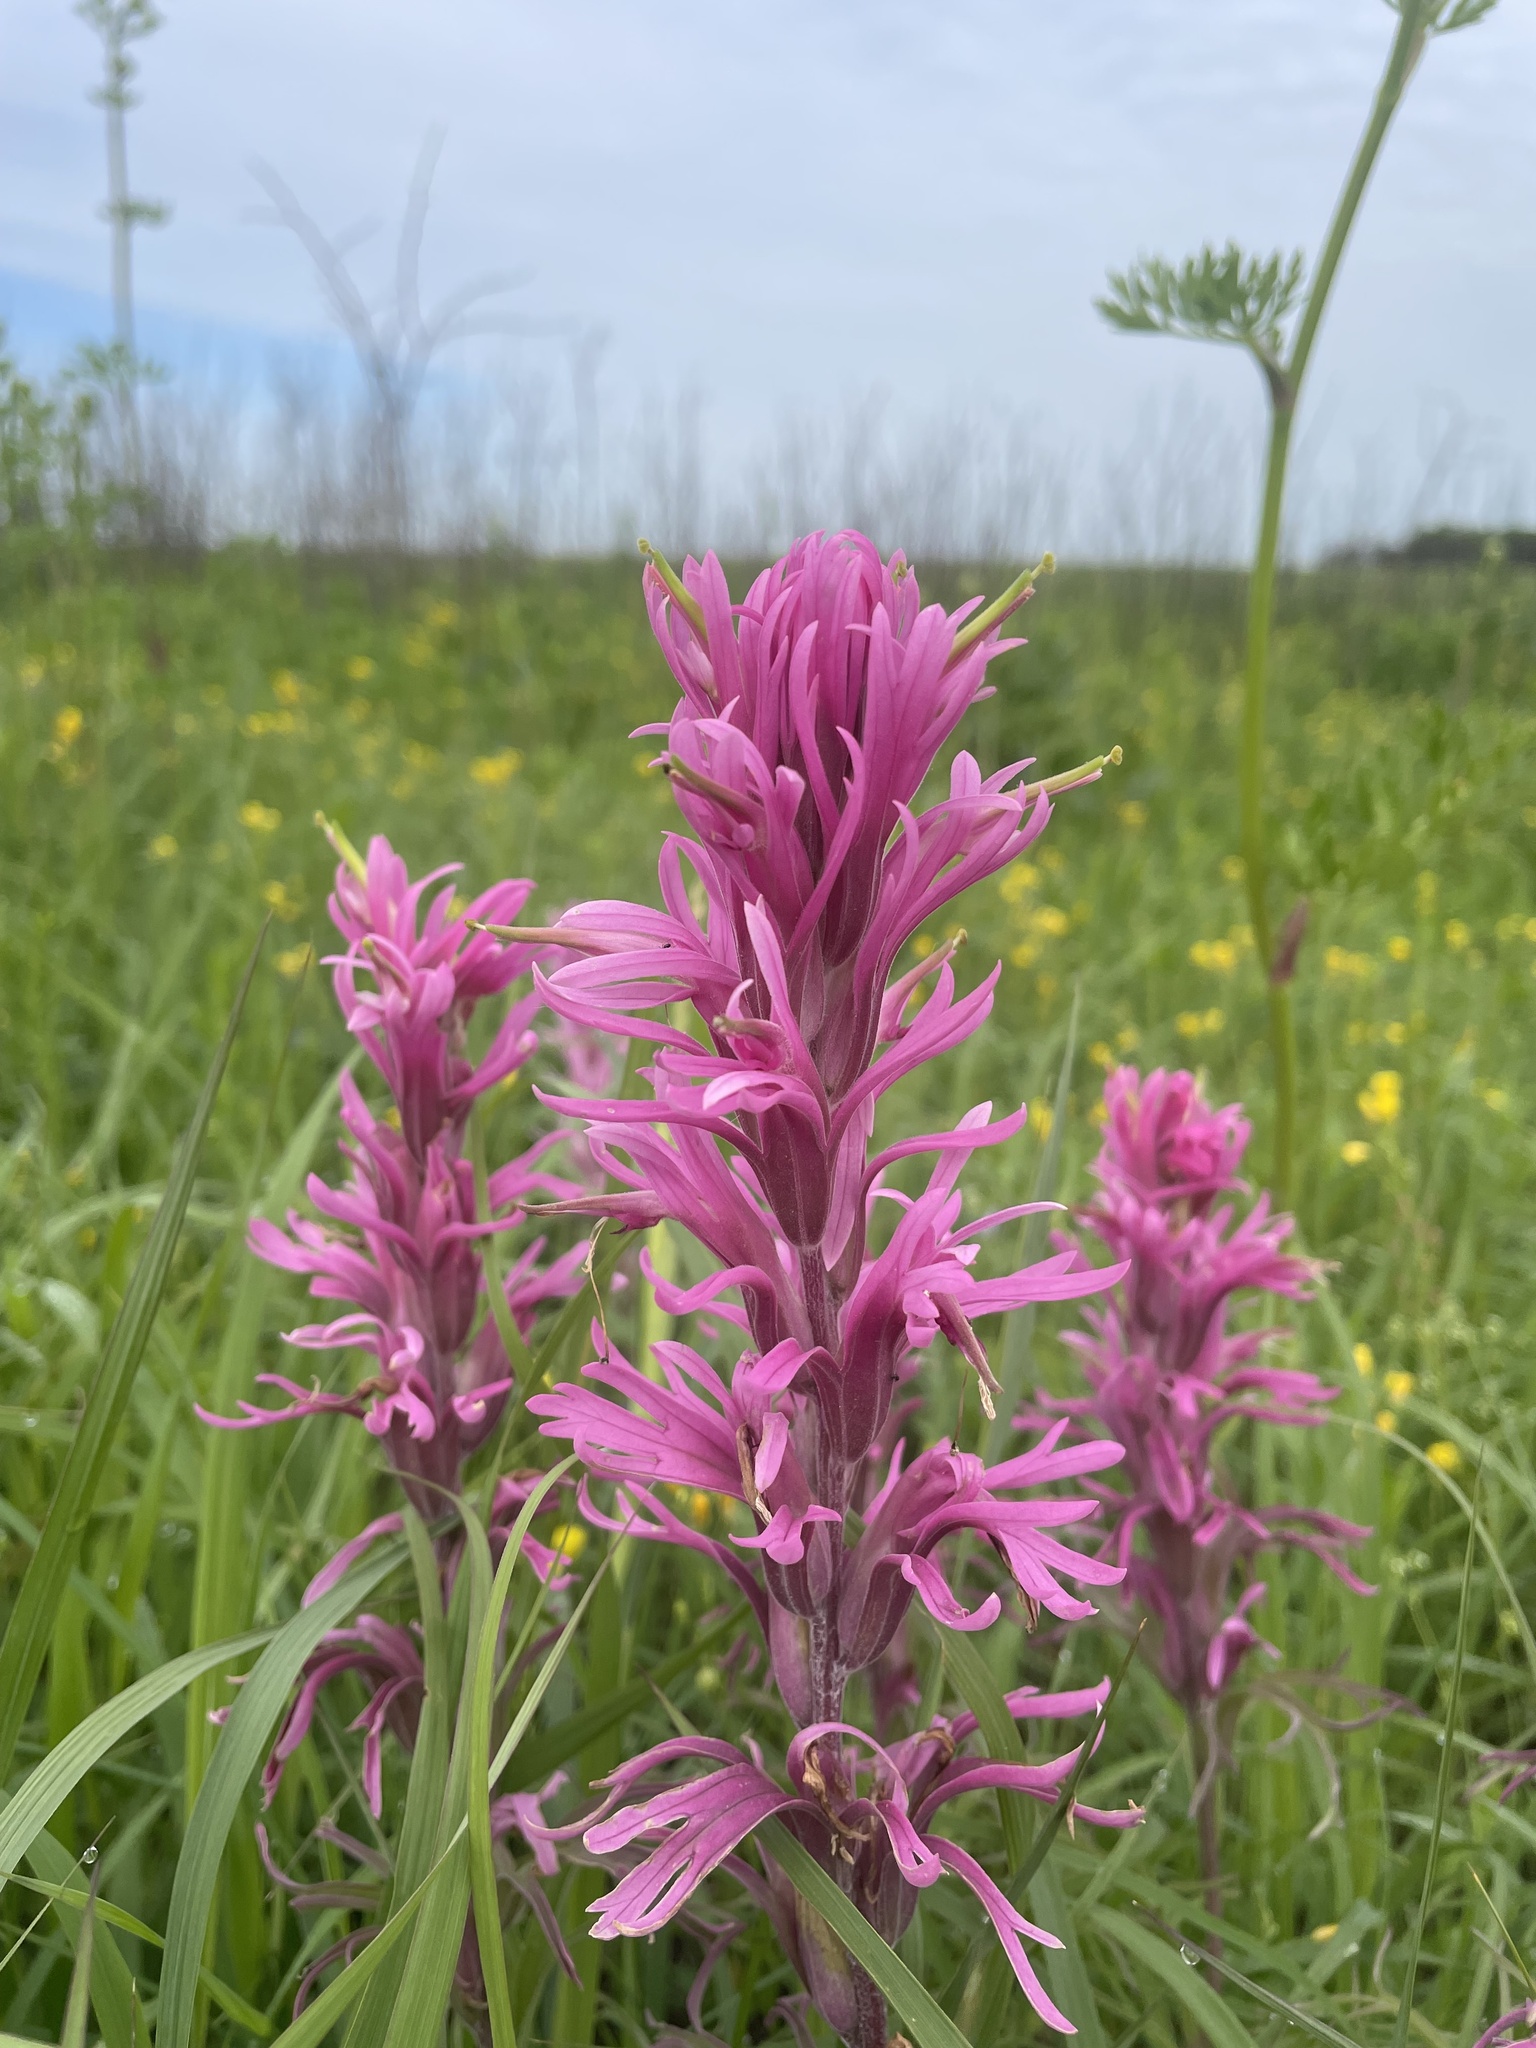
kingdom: Plantae
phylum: Tracheophyta
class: Magnoliopsida
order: Lamiales
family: Orobanchaceae
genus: Castilleja
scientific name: Castilleja purpurea
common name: Plains paintbrush
